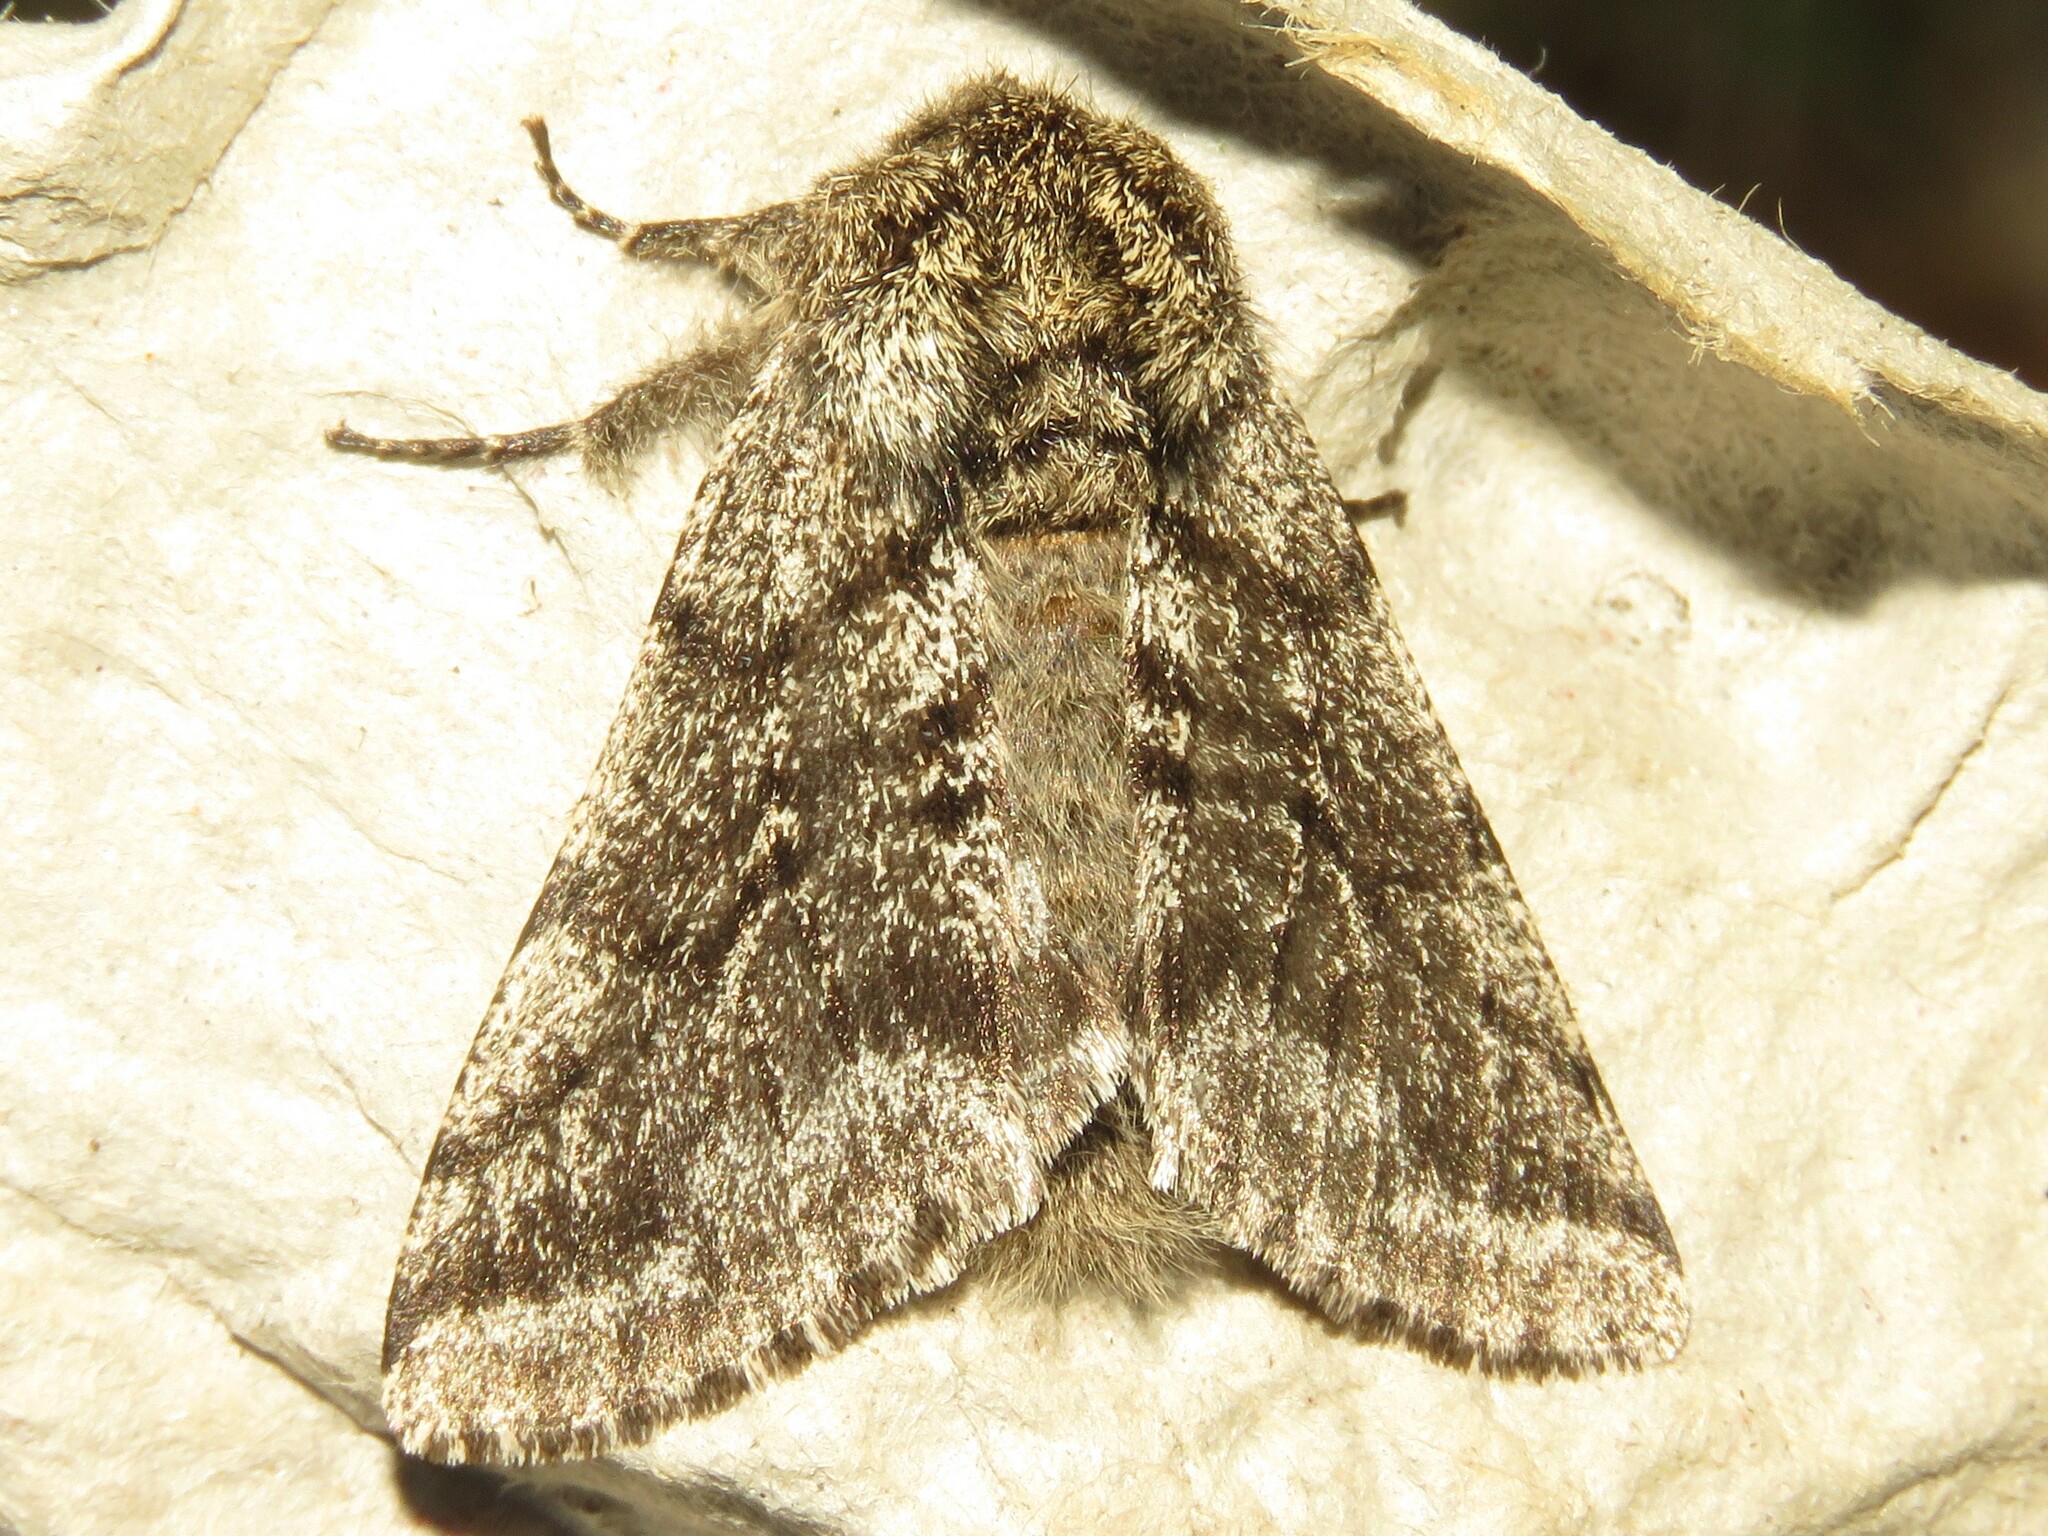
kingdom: Animalia
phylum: Arthropoda
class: Insecta
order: Lepidoptera
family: Geometridae
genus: Lycia
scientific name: Lycia ursaria
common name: Stout spanworm
